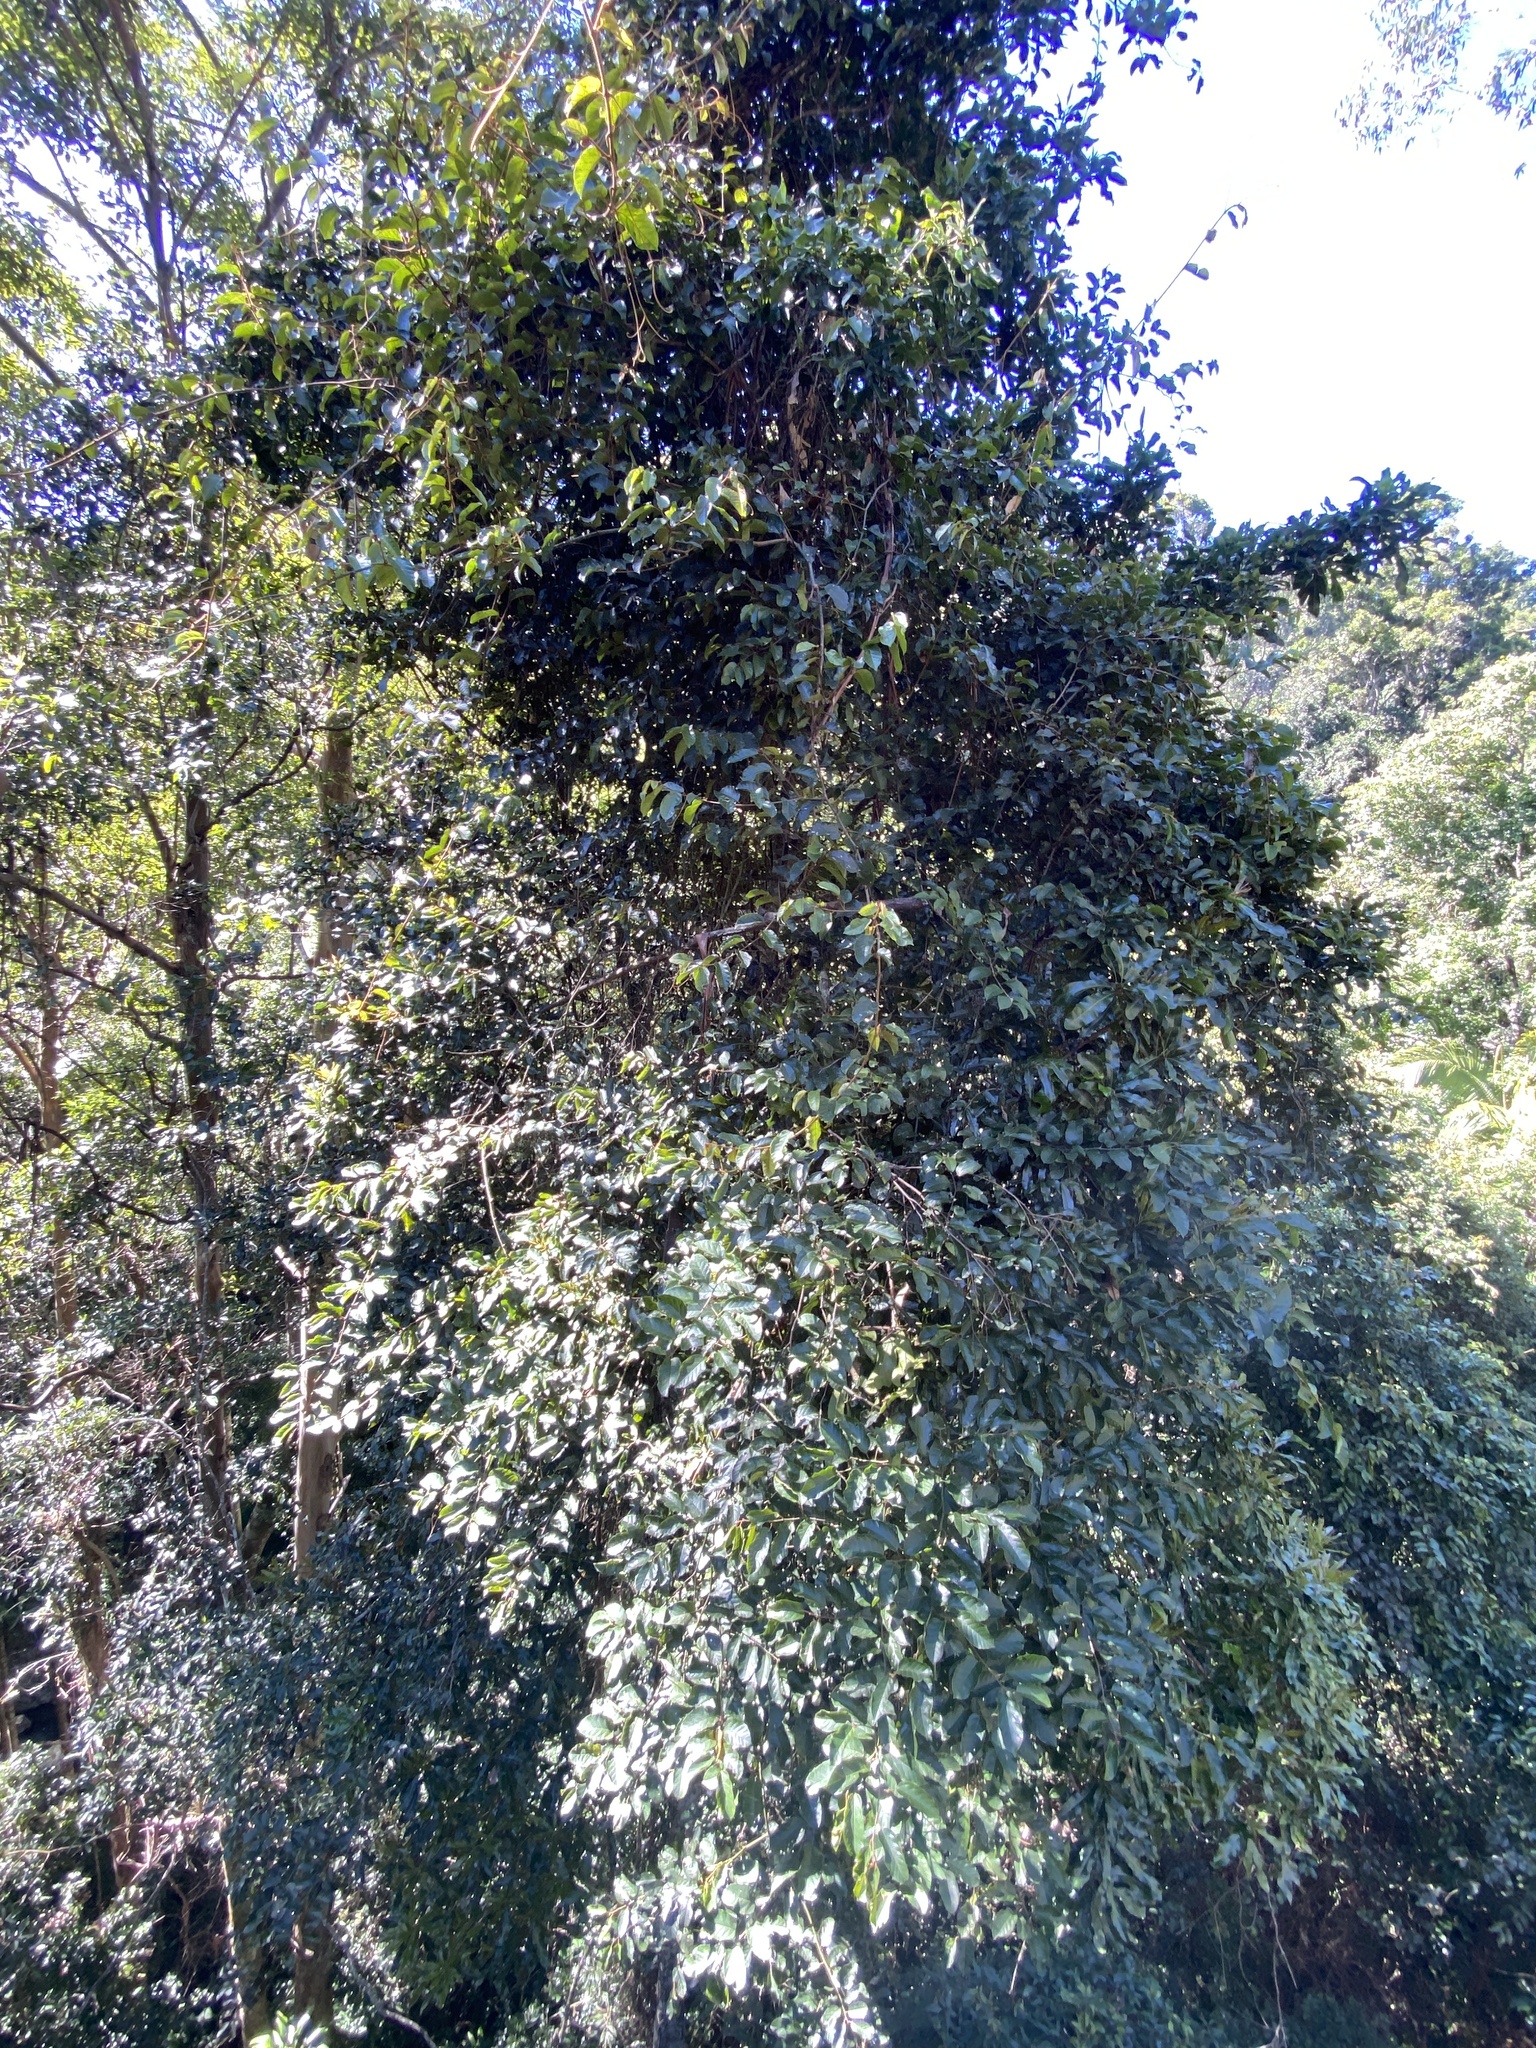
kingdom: Plantae
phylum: Tracheophyta
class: Magnoliopsida
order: Vitales
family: Vitaceae
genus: Cissus
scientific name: Cissus antarctica
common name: Kangaroo vine
